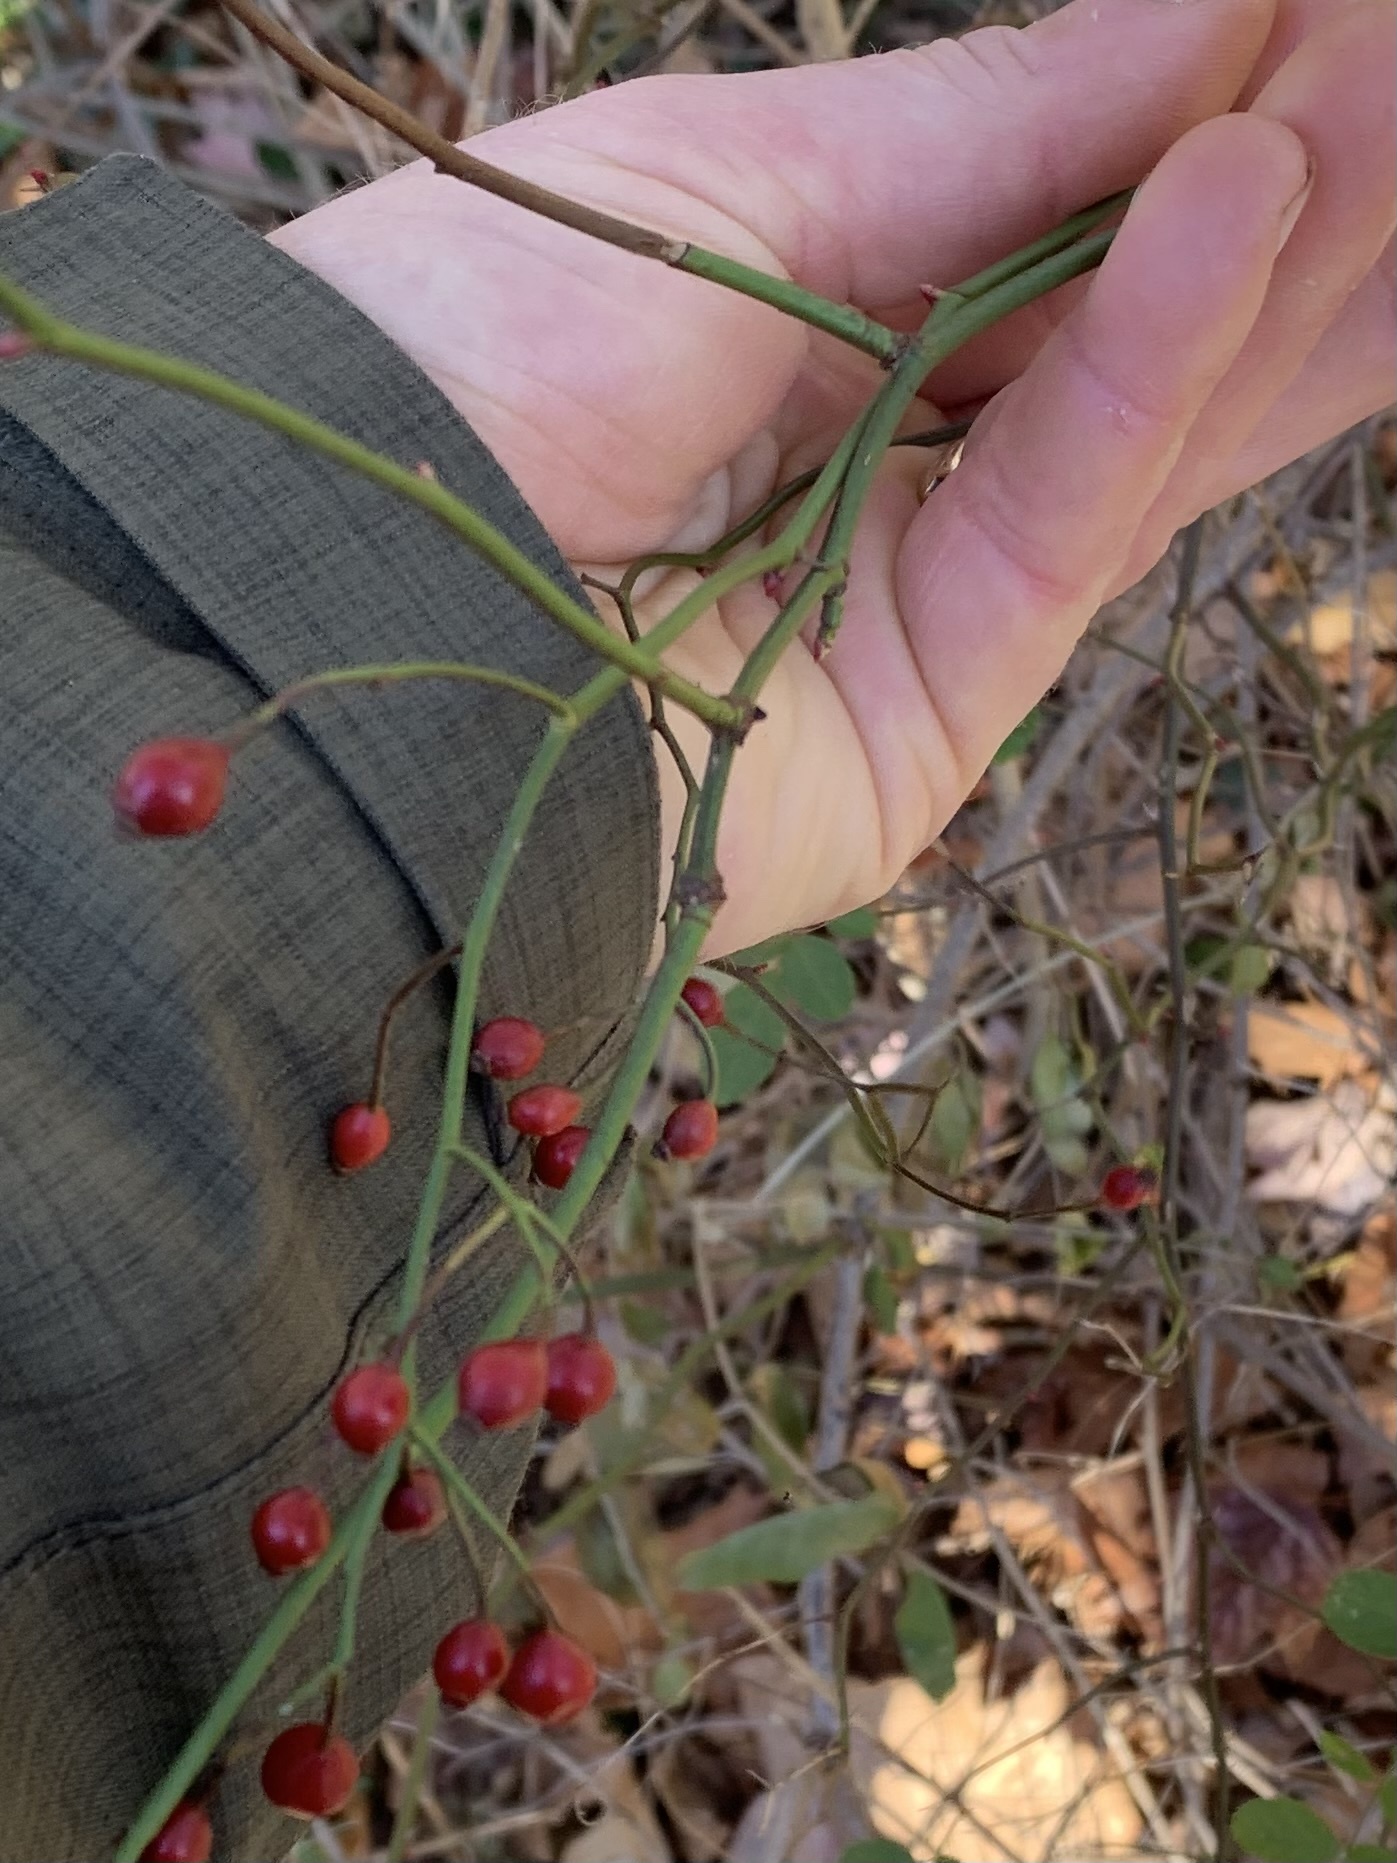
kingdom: Plantae
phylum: Tracheophyta
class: Magnoliopsida
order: Rosales
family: Rosaceae
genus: Rosa
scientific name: Rosa multiflora
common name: Multiflora rose
